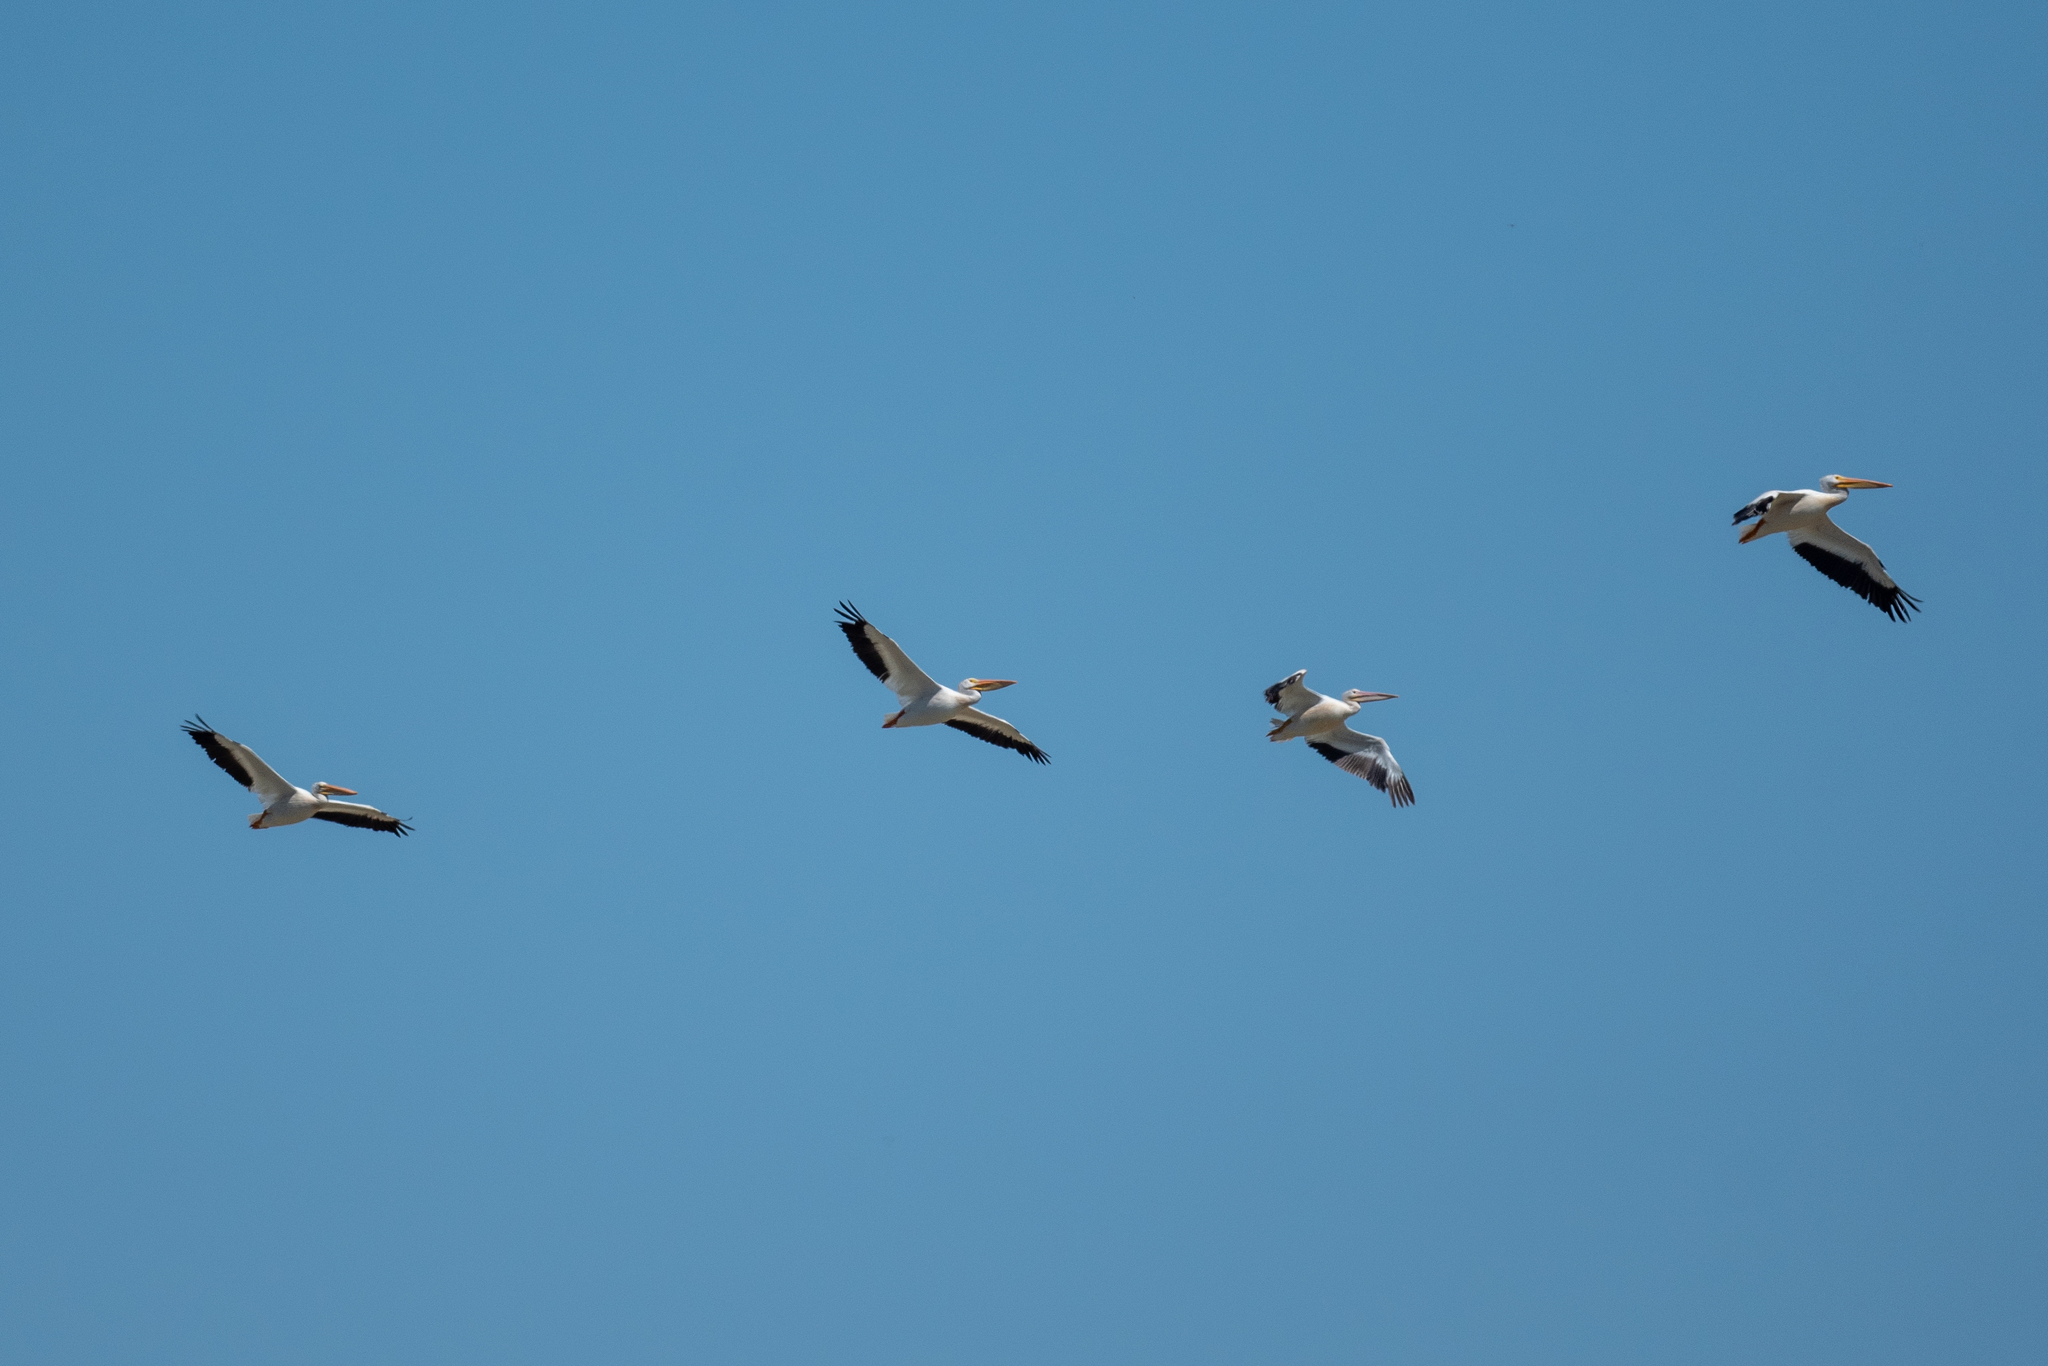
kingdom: Animalia
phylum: Chordata
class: Aves
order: Pelecaniformes
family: Pelecanidae
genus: Pelecanus
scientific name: Pelecanus erythrorhynchos
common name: American white pelican
